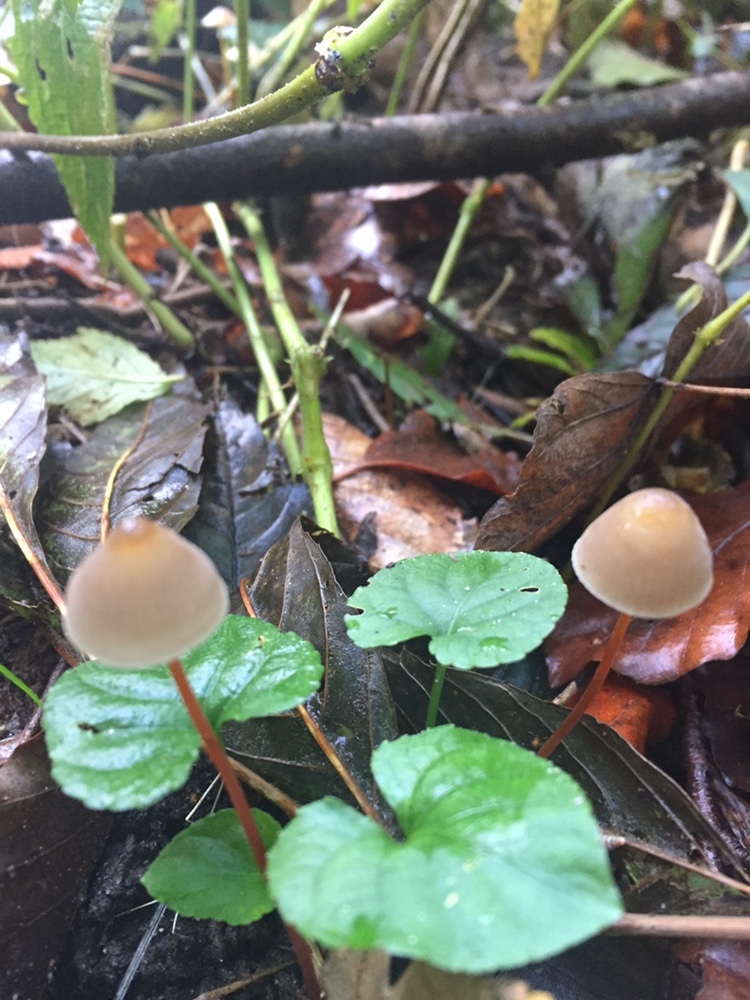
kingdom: Fungi
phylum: Basidiomycota
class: Agaricomycetes
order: Agaricales
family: Mycenaceae
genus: Mycena
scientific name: Mycena crocata
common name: Saffrondrop bonnet
